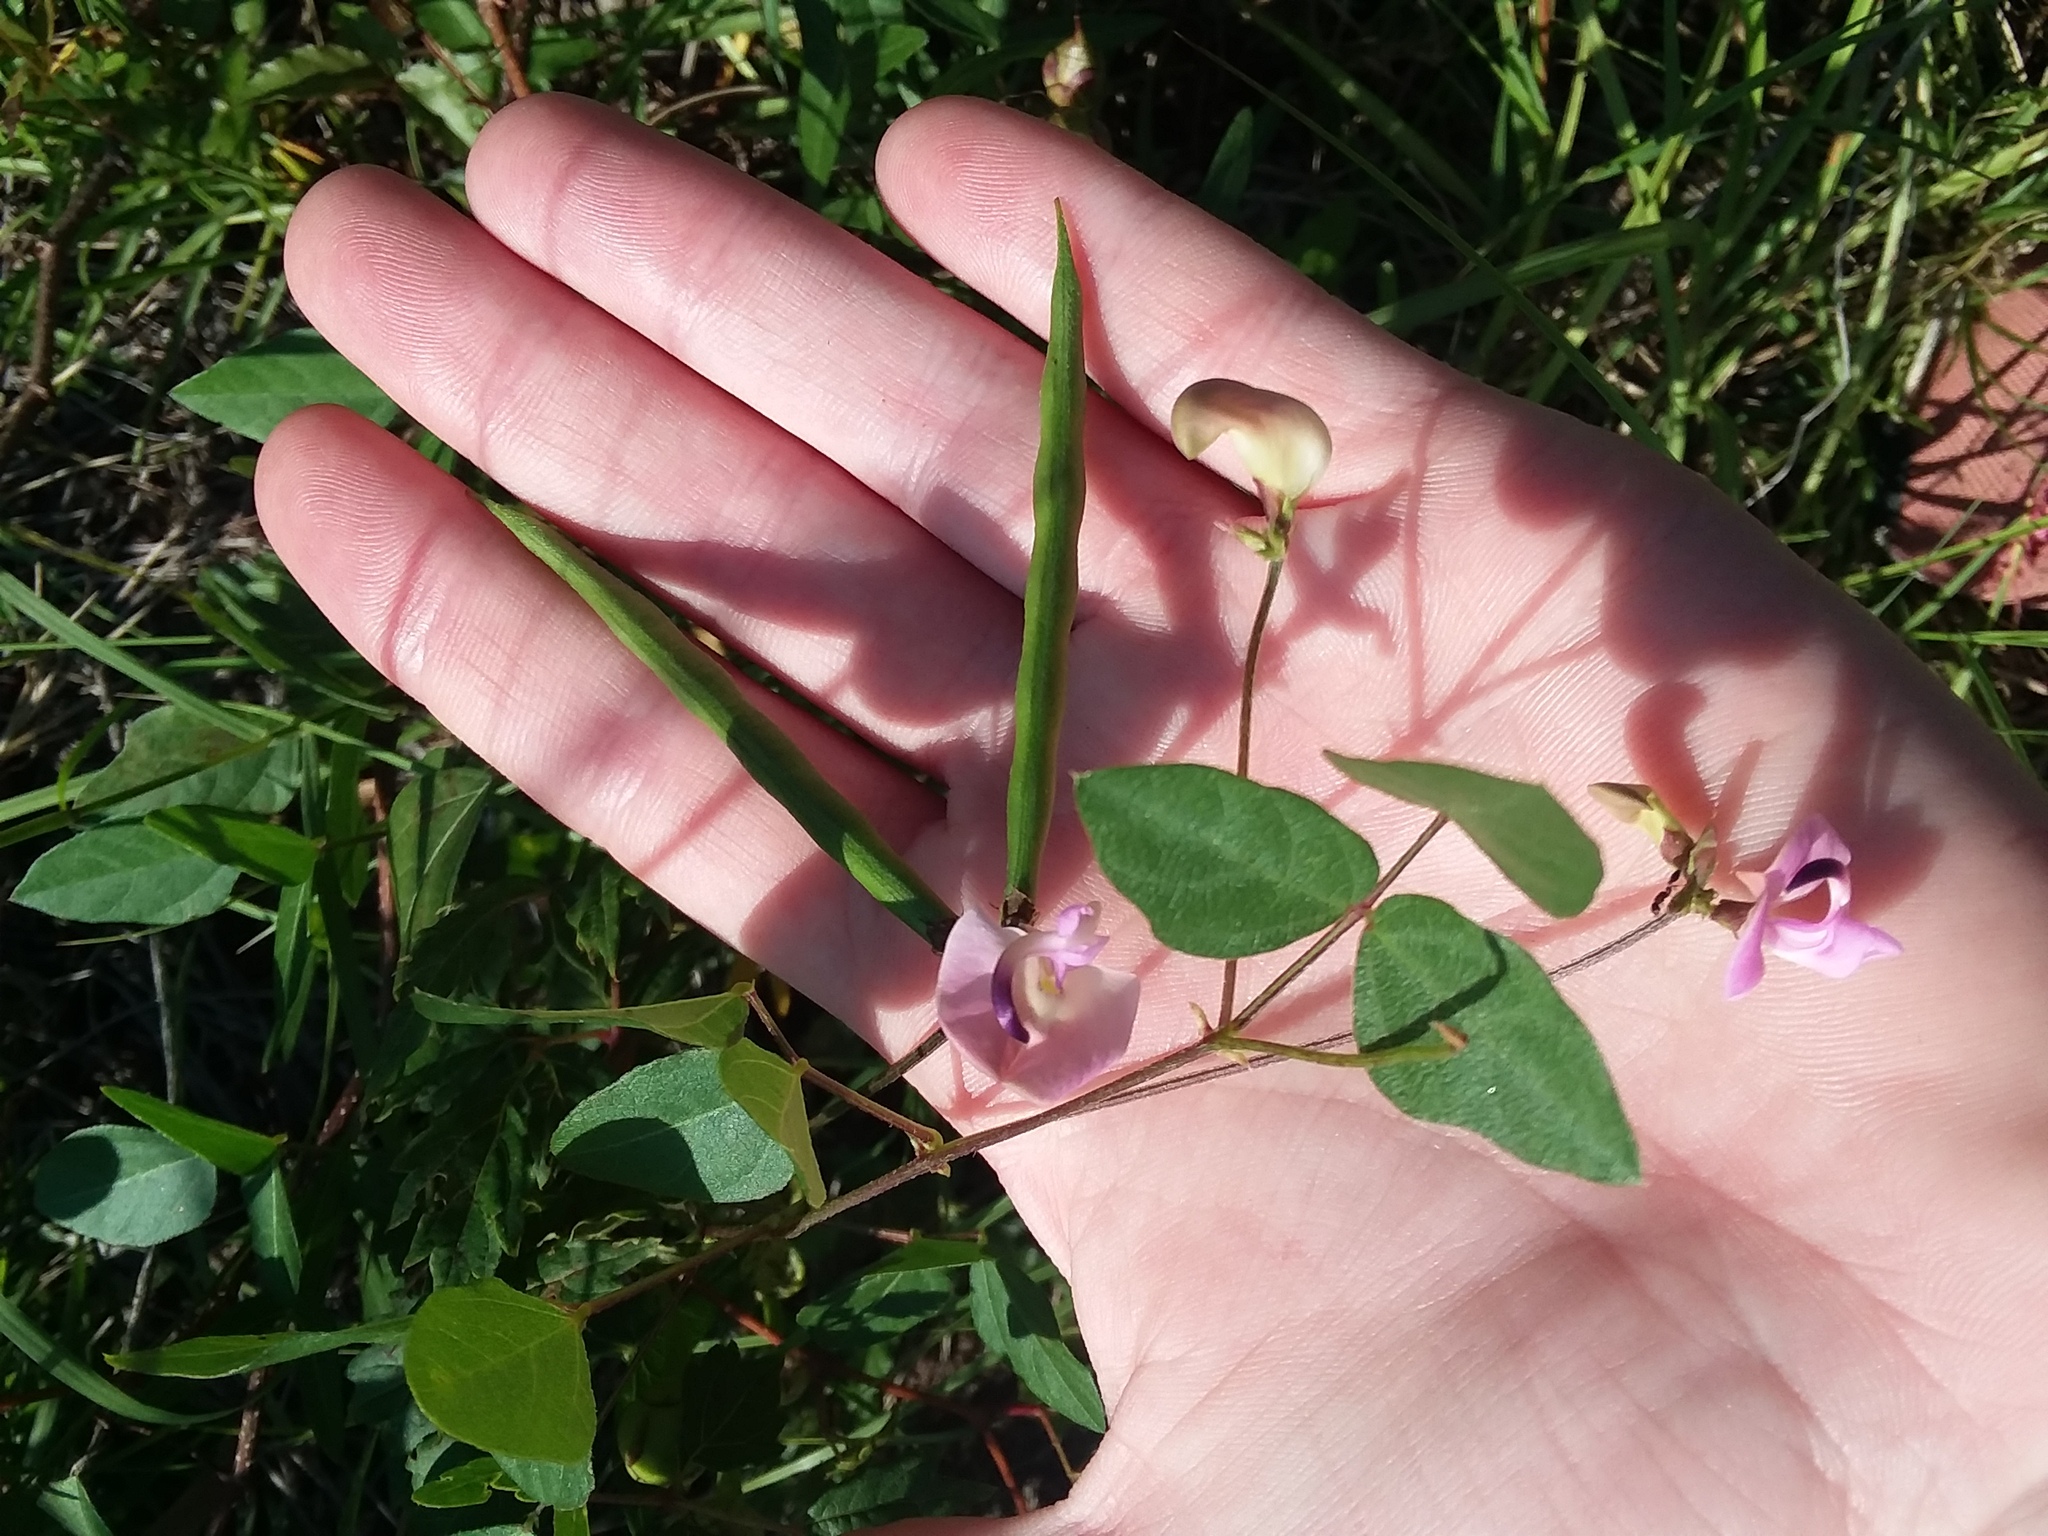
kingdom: Plantae
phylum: Tracheophyta
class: Magnoliopsida
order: Fabales
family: Fabaceae
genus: Strophostyles
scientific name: Strophostyles helvola
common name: Trailing wild bean
